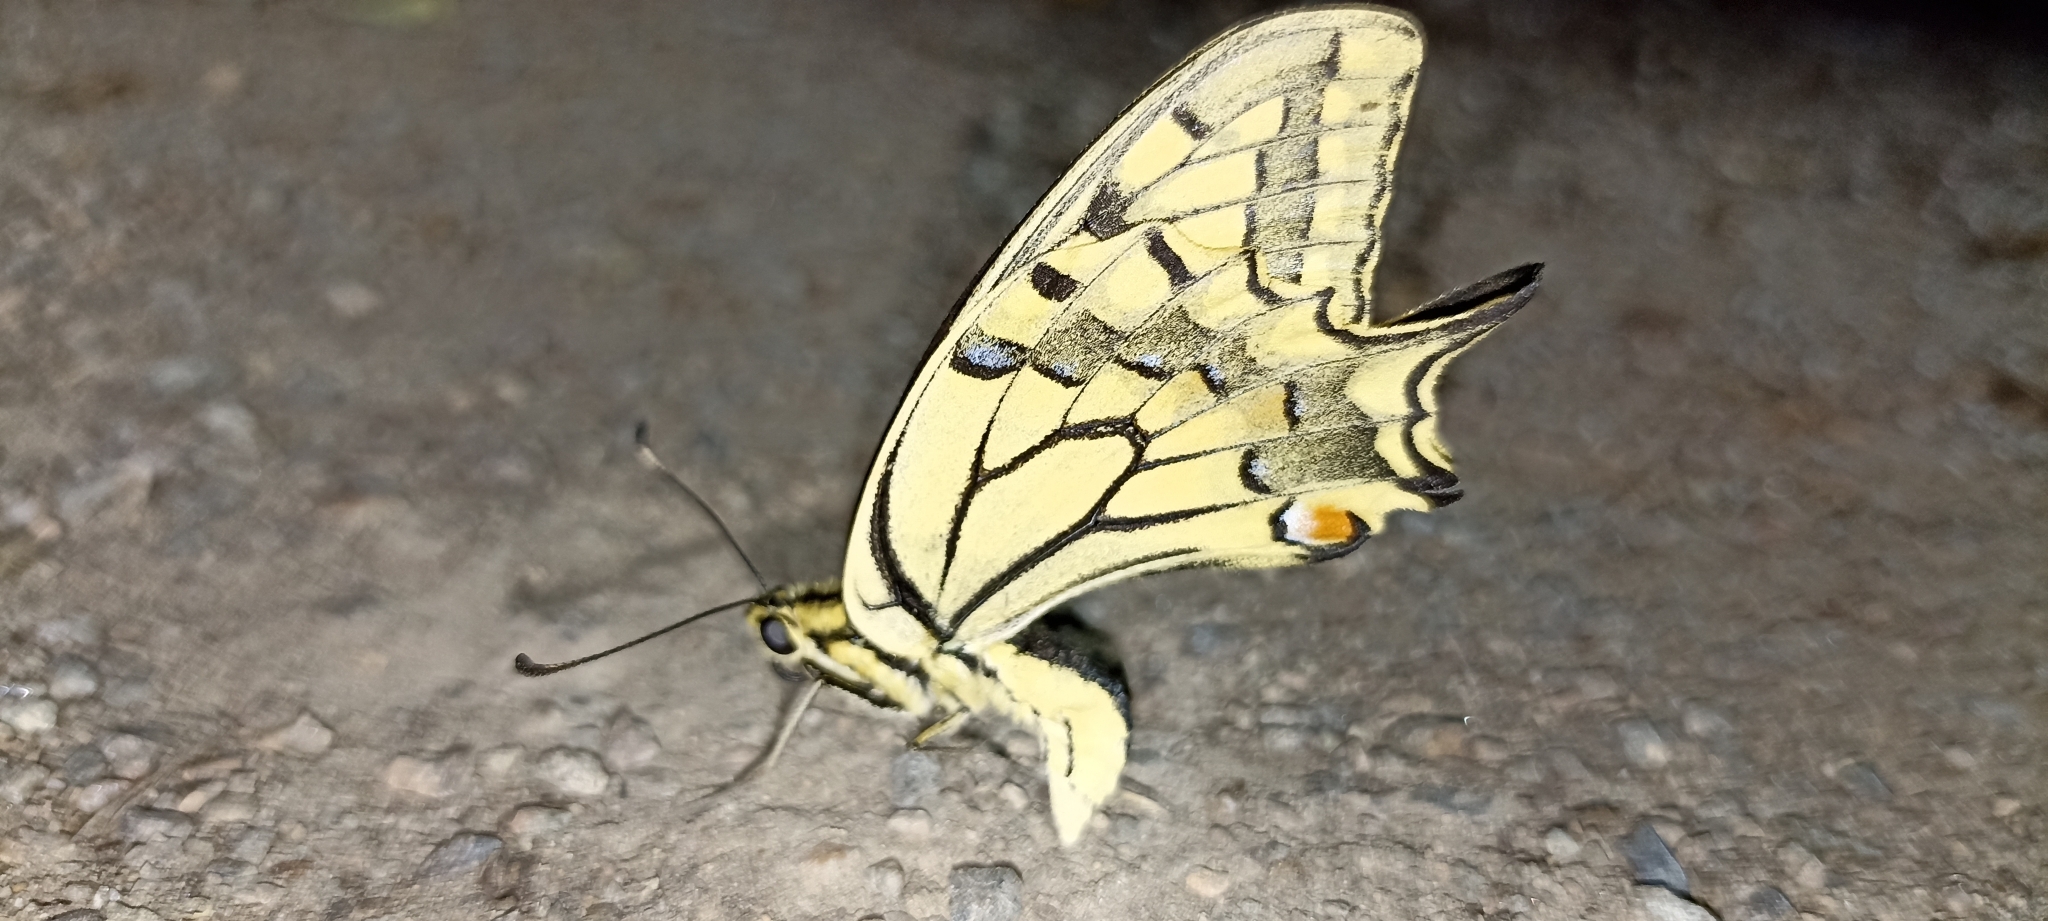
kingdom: Animalia
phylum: Arthropoda
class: Insecta
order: Lepidoptera
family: Papilionidae
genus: Papilio
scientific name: Papilio machaon
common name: Swallowtail
